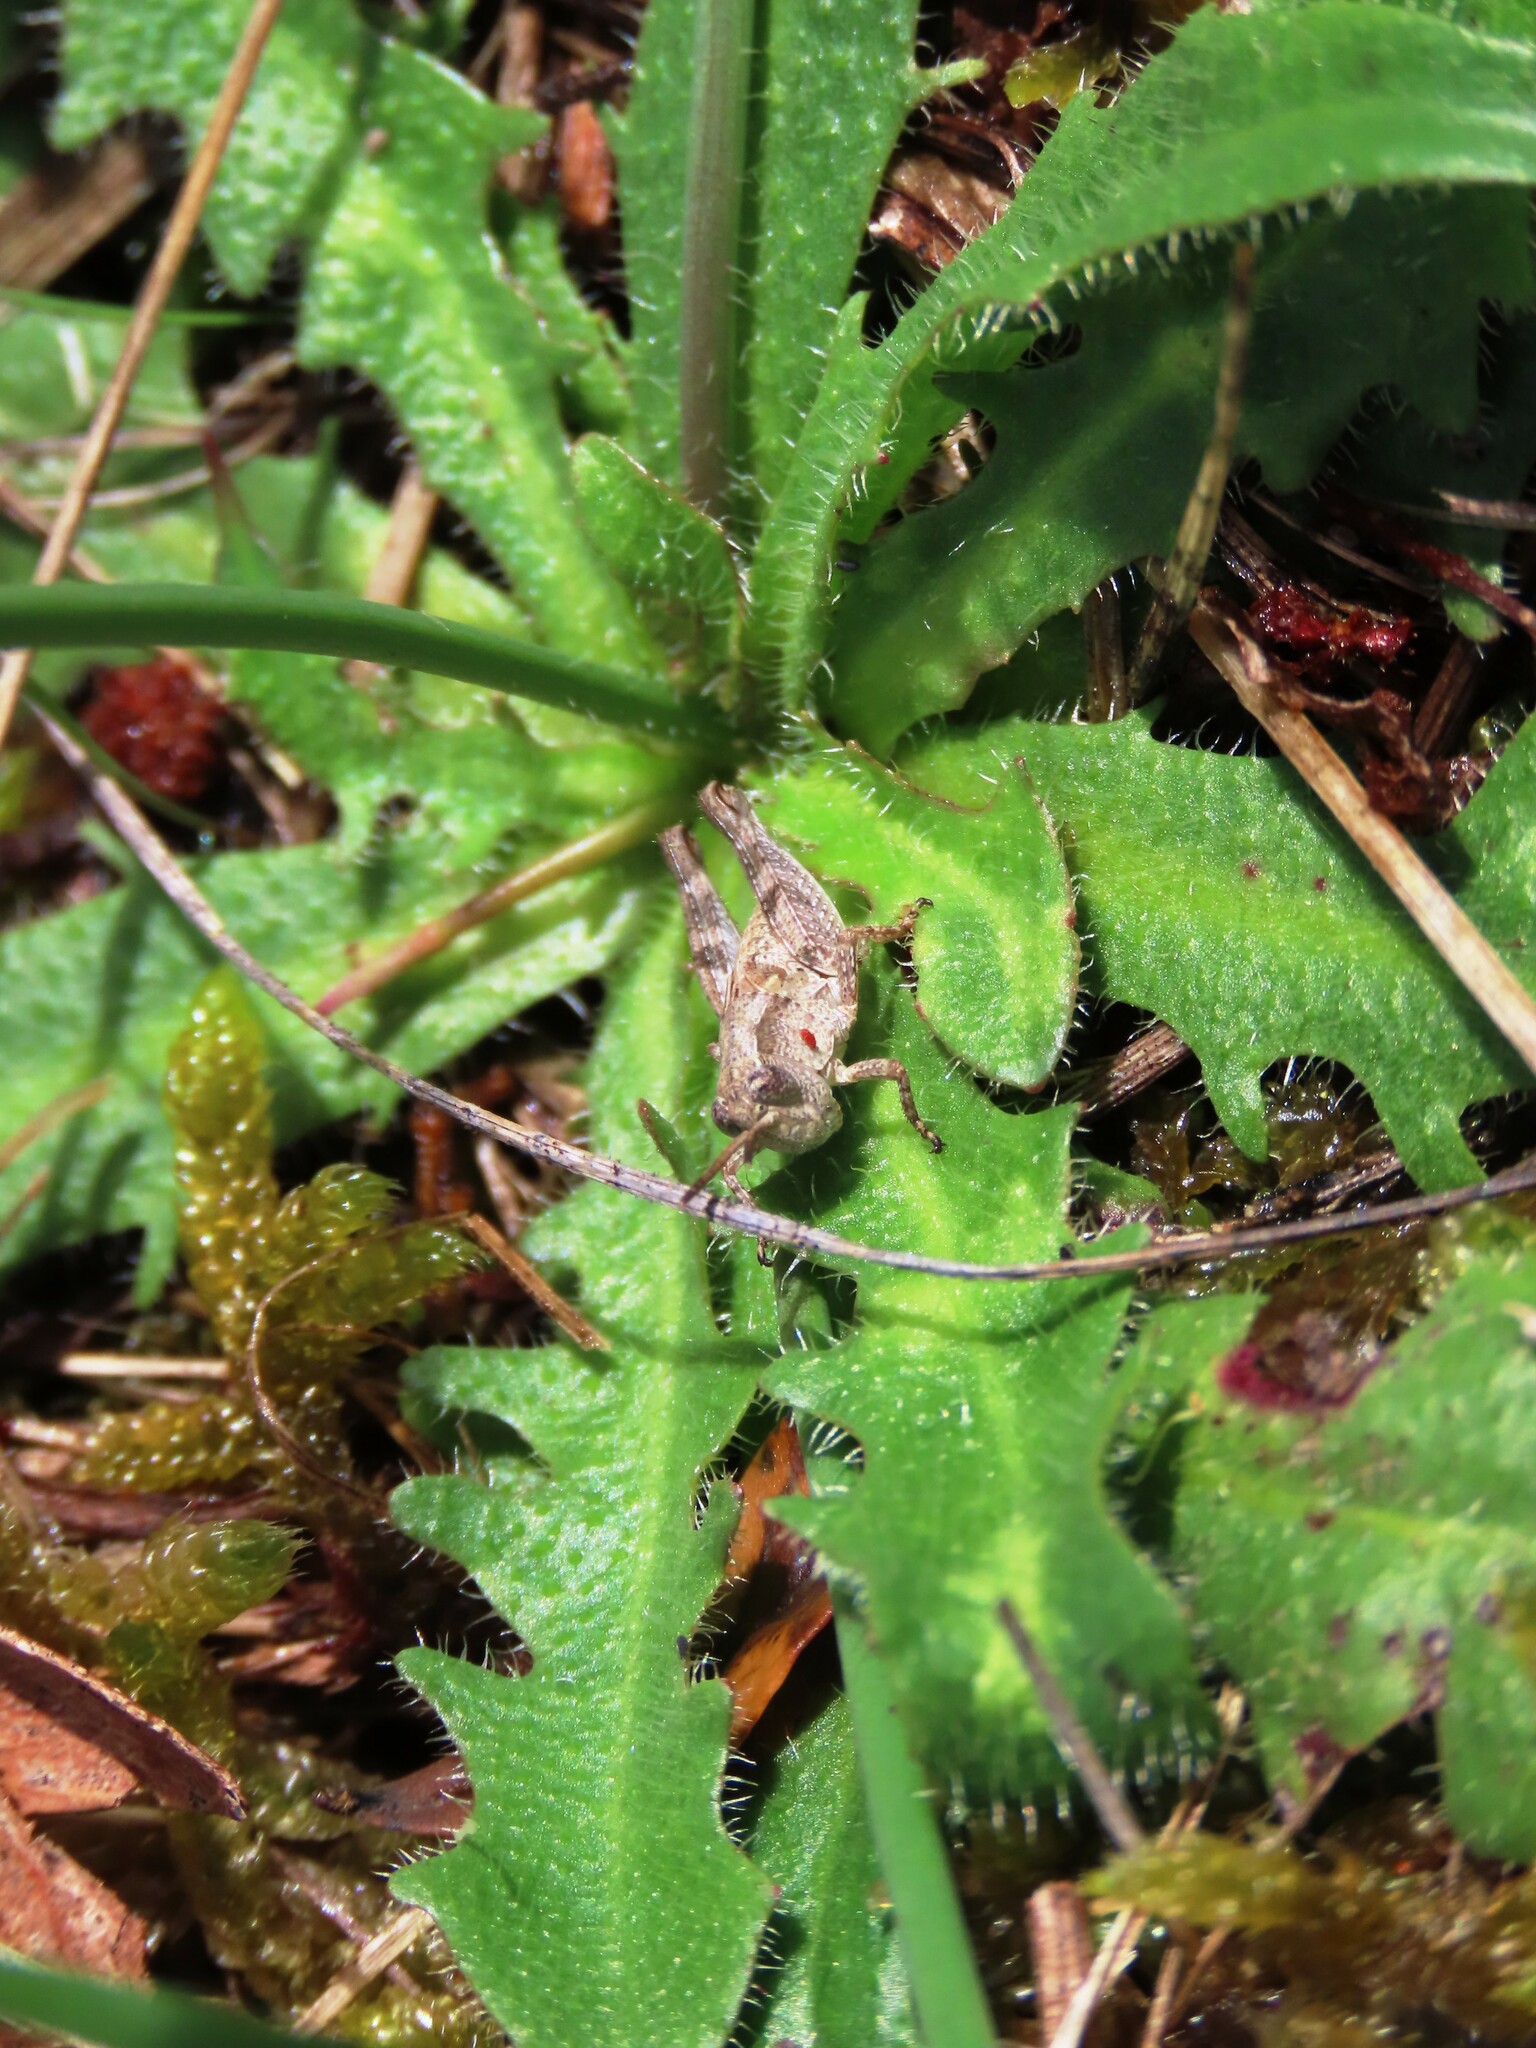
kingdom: Animalia
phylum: Arthropoda
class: Insecta
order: Orthoptera
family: Acrididae
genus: Phaulacridium
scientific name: Phaulacridium vittatum
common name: Wingless grasshopper
